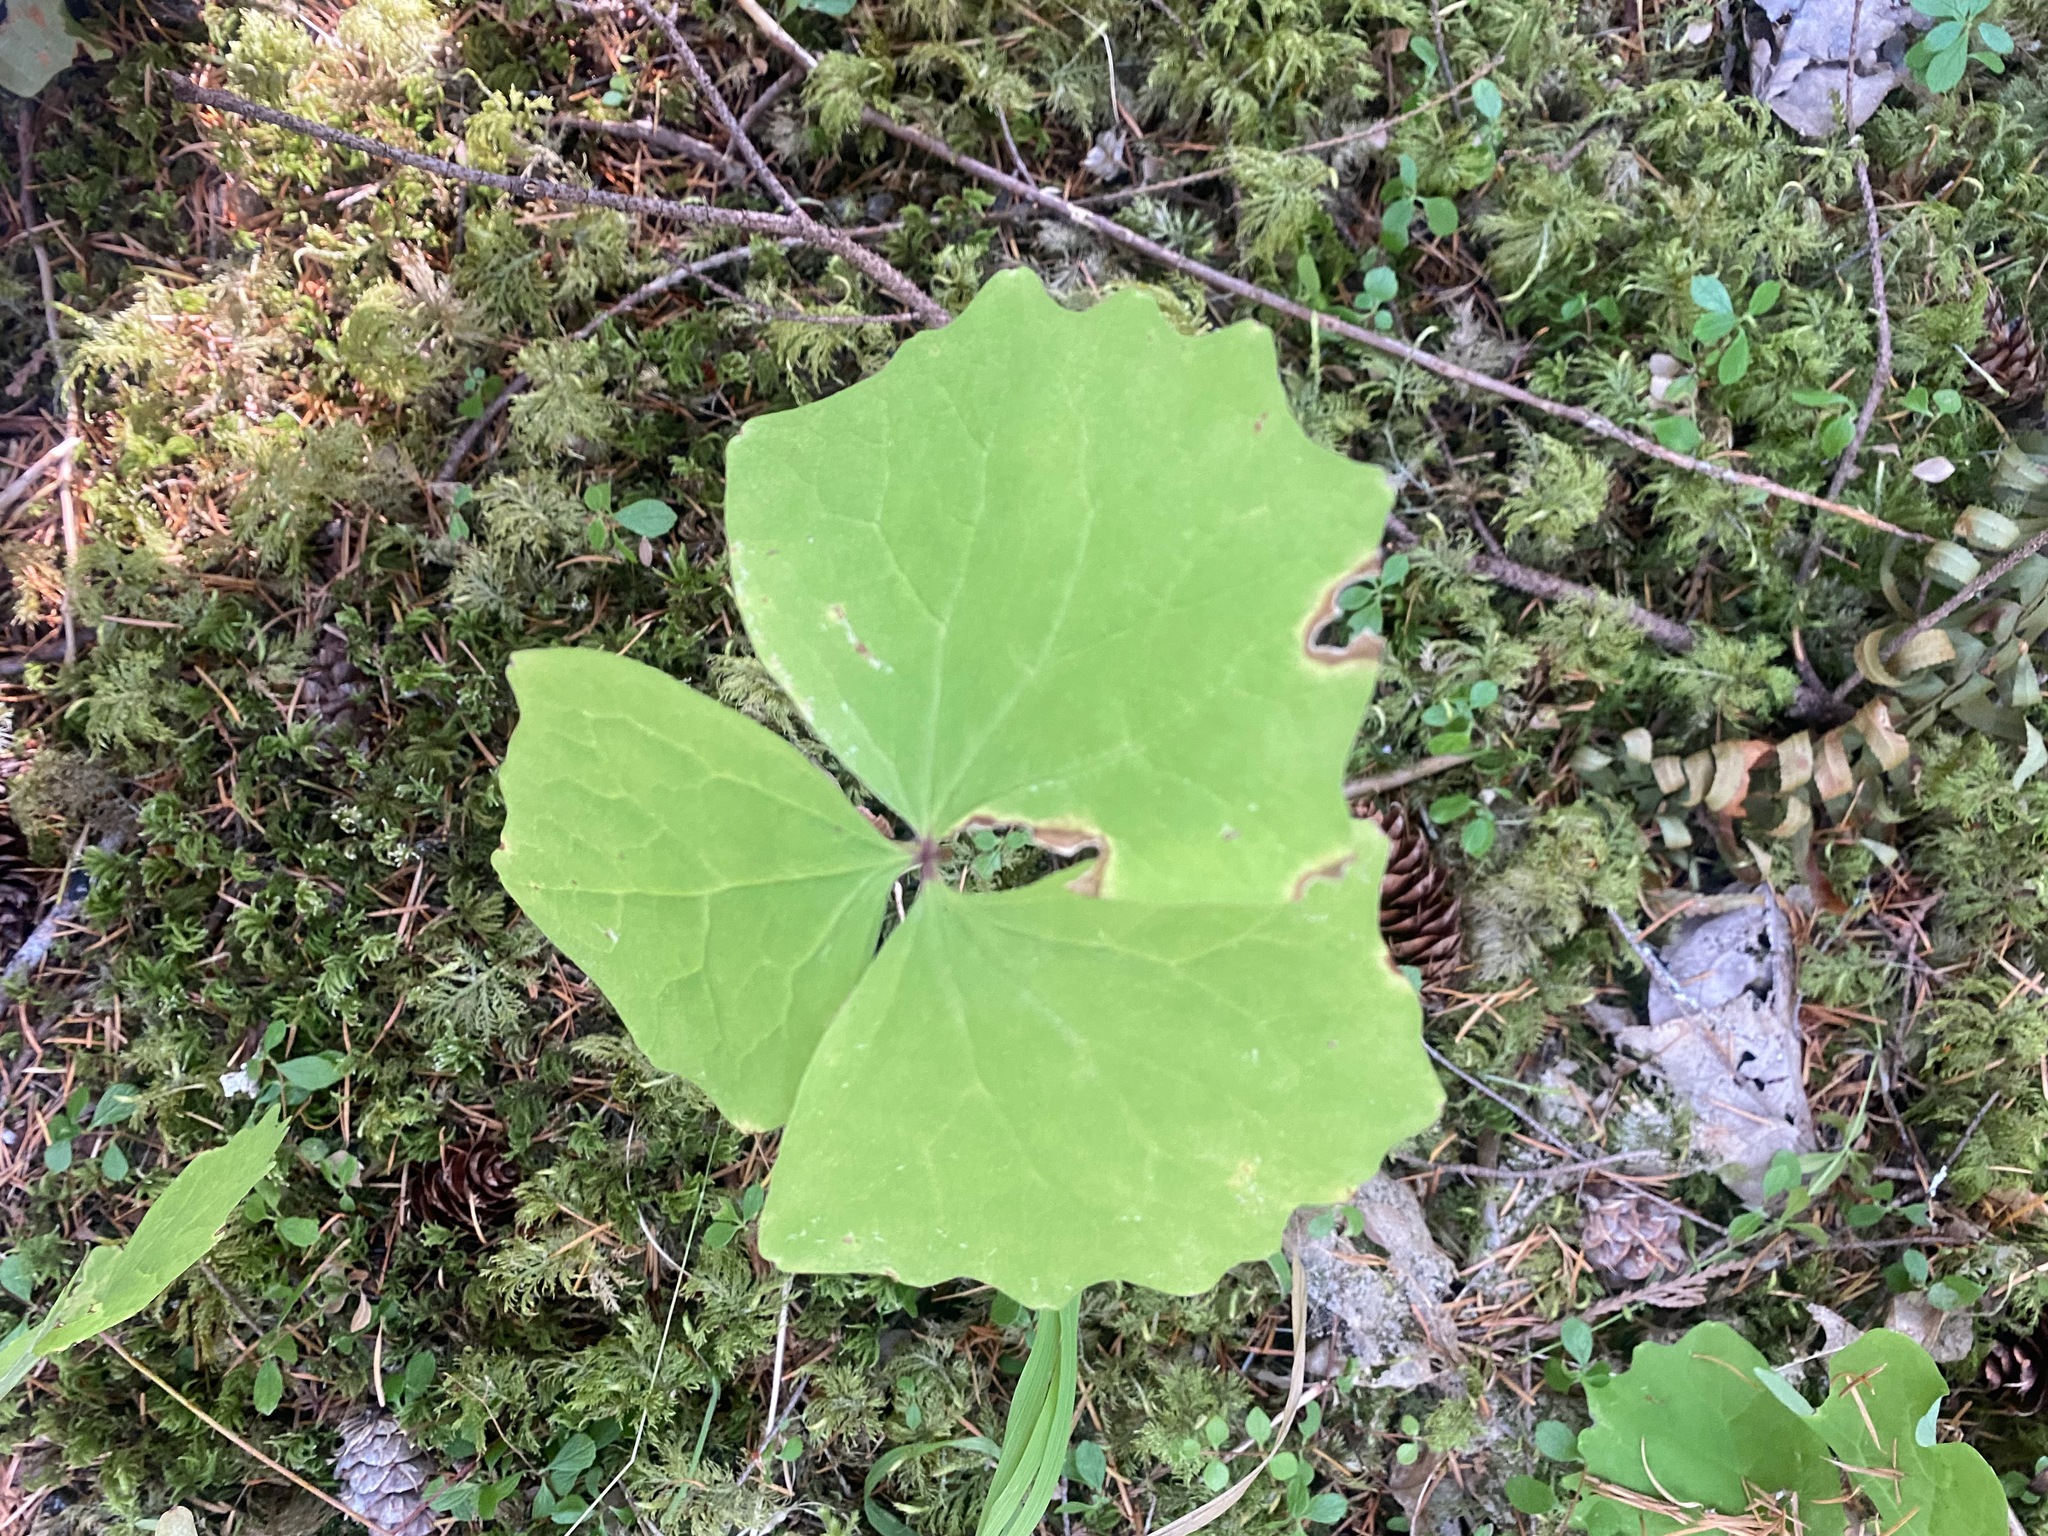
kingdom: Plantae
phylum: Tracheophyta
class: Magnoliopsida
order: Ranunculales
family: Berberidaceae
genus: Achlys
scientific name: Achlys triphylla
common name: Vanilla-leaf
